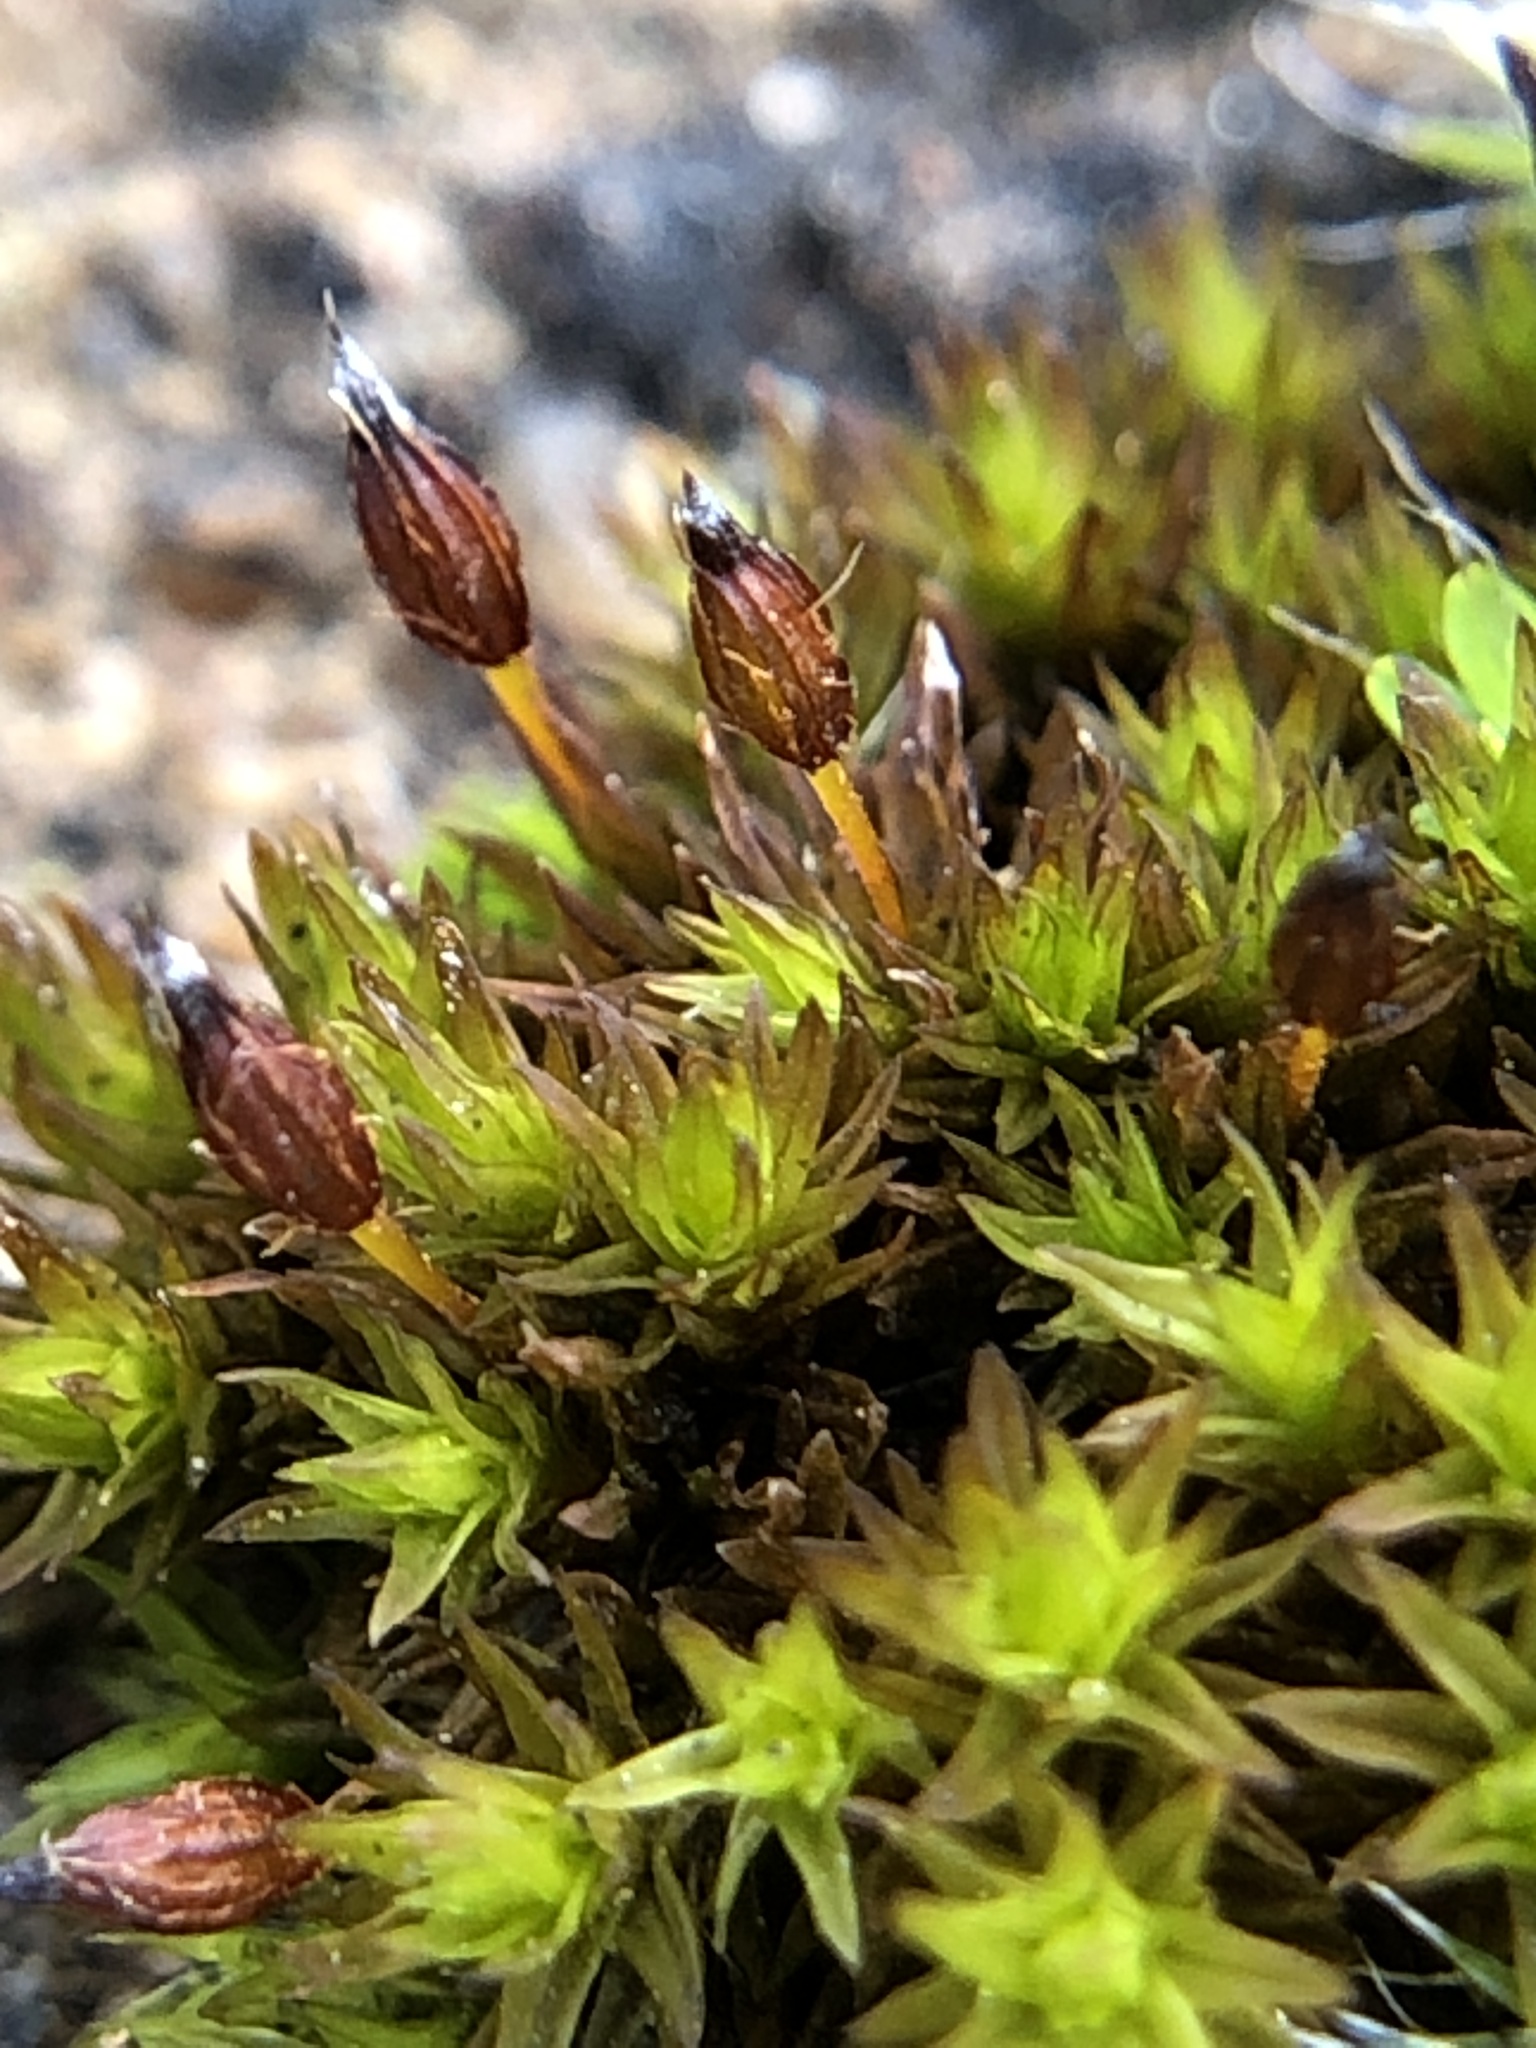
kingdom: Plantae
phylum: Bryophyta
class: Bryopsida
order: Orthotrichales
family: Orthotrichaceae
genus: Orthotrichum
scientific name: Orthotrichum anomalum
